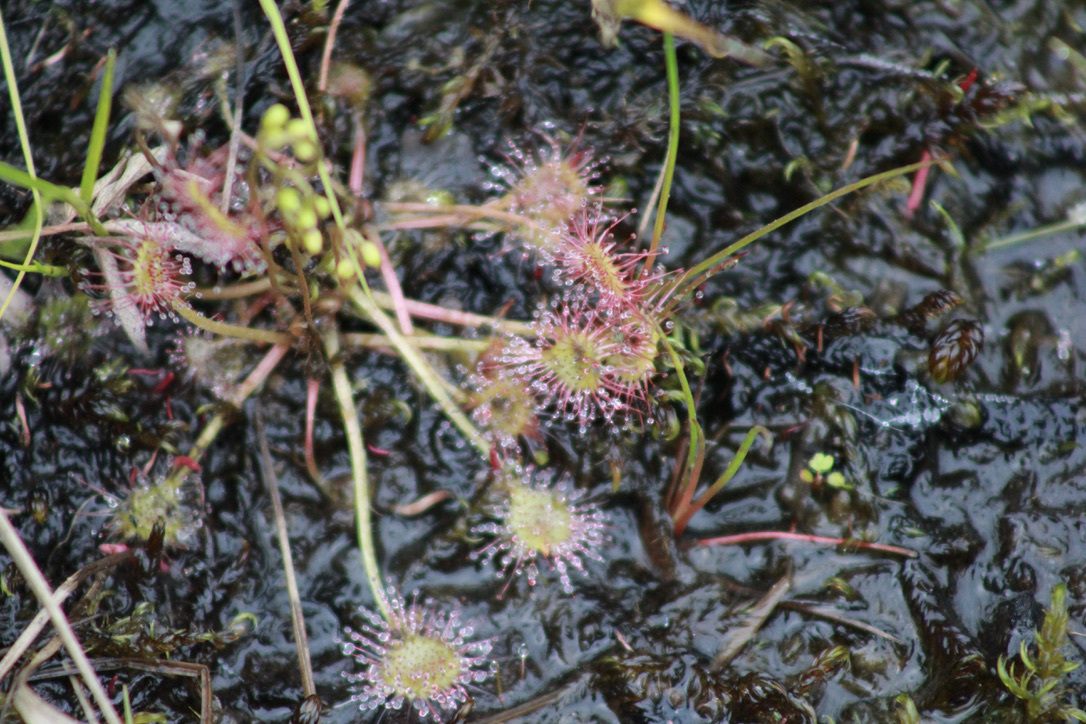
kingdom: Plantae
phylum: Tracheophyta
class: Magnoliopsida
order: Caryophyllales
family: Droseraceae
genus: Drosera
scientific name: Drosera rotundifolia
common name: Round-leaved sundew
